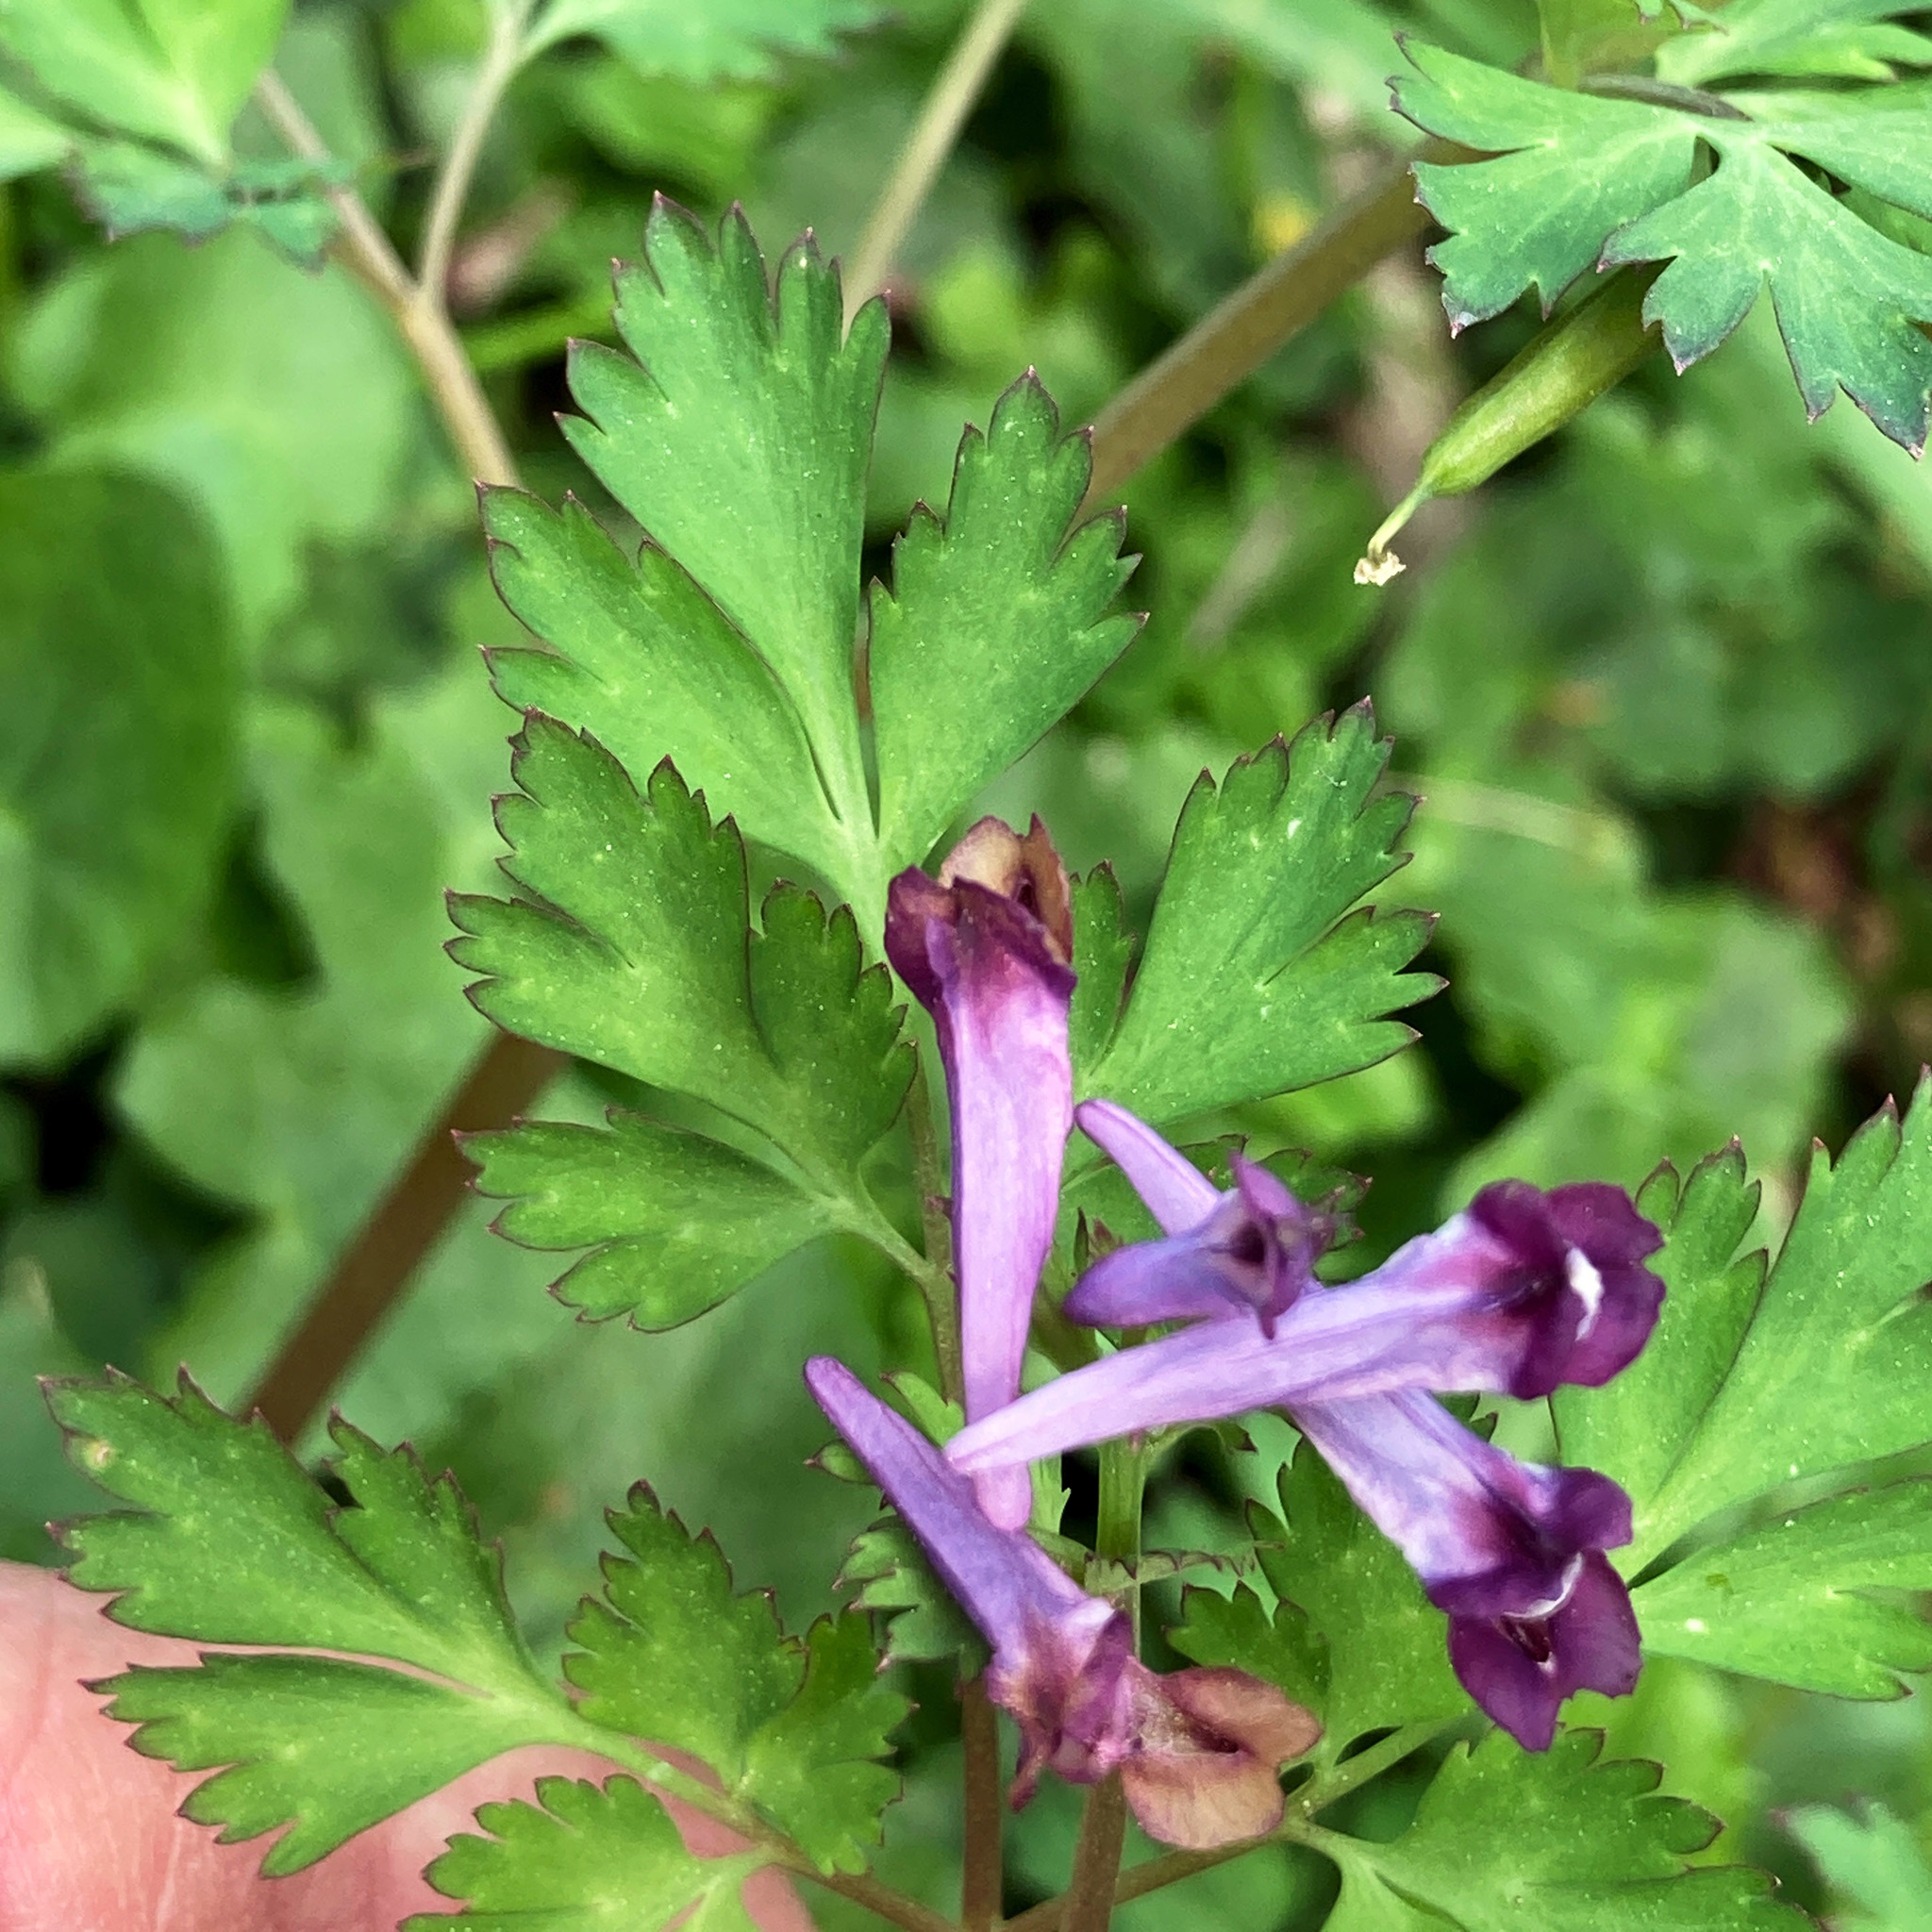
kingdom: Plantae
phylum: Tracheophyta
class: Magnoliopsida
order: Ranunculales
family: Papaveraceae
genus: Corydalis
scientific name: Corydalis incisa
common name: Incised fumewort
